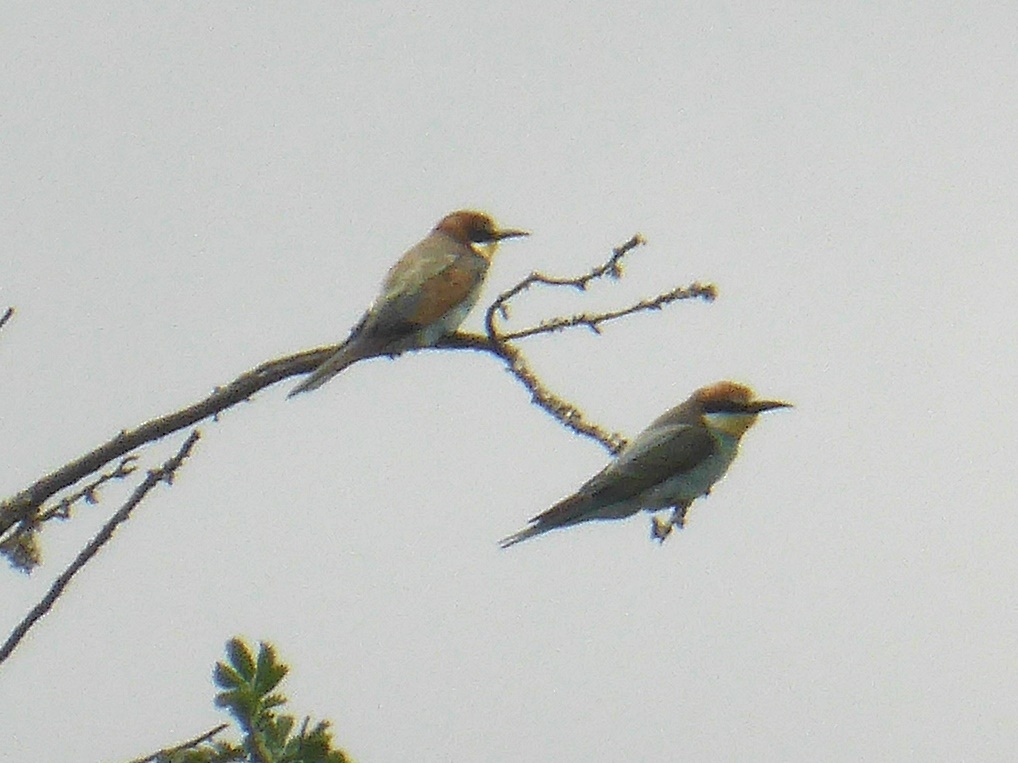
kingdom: Animalia
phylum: Chordata
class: Aves
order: Coraciiformes
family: Meropidae
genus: Merops
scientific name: Merops apiaster
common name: European bee-eater
